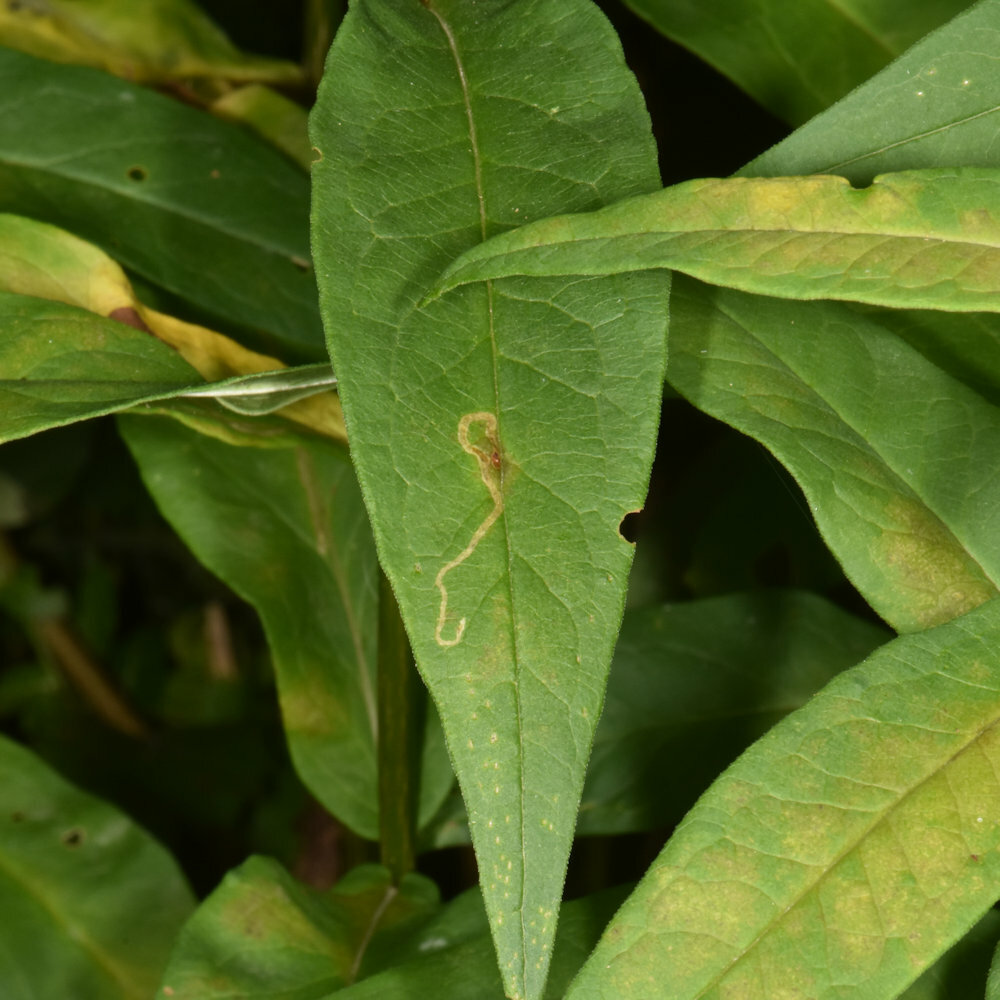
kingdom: Animalia
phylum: Arthropoda
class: Insecta
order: Diptera
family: Agromyzidae
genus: Liriomyza
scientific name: Liriomyza phloxiphaga
